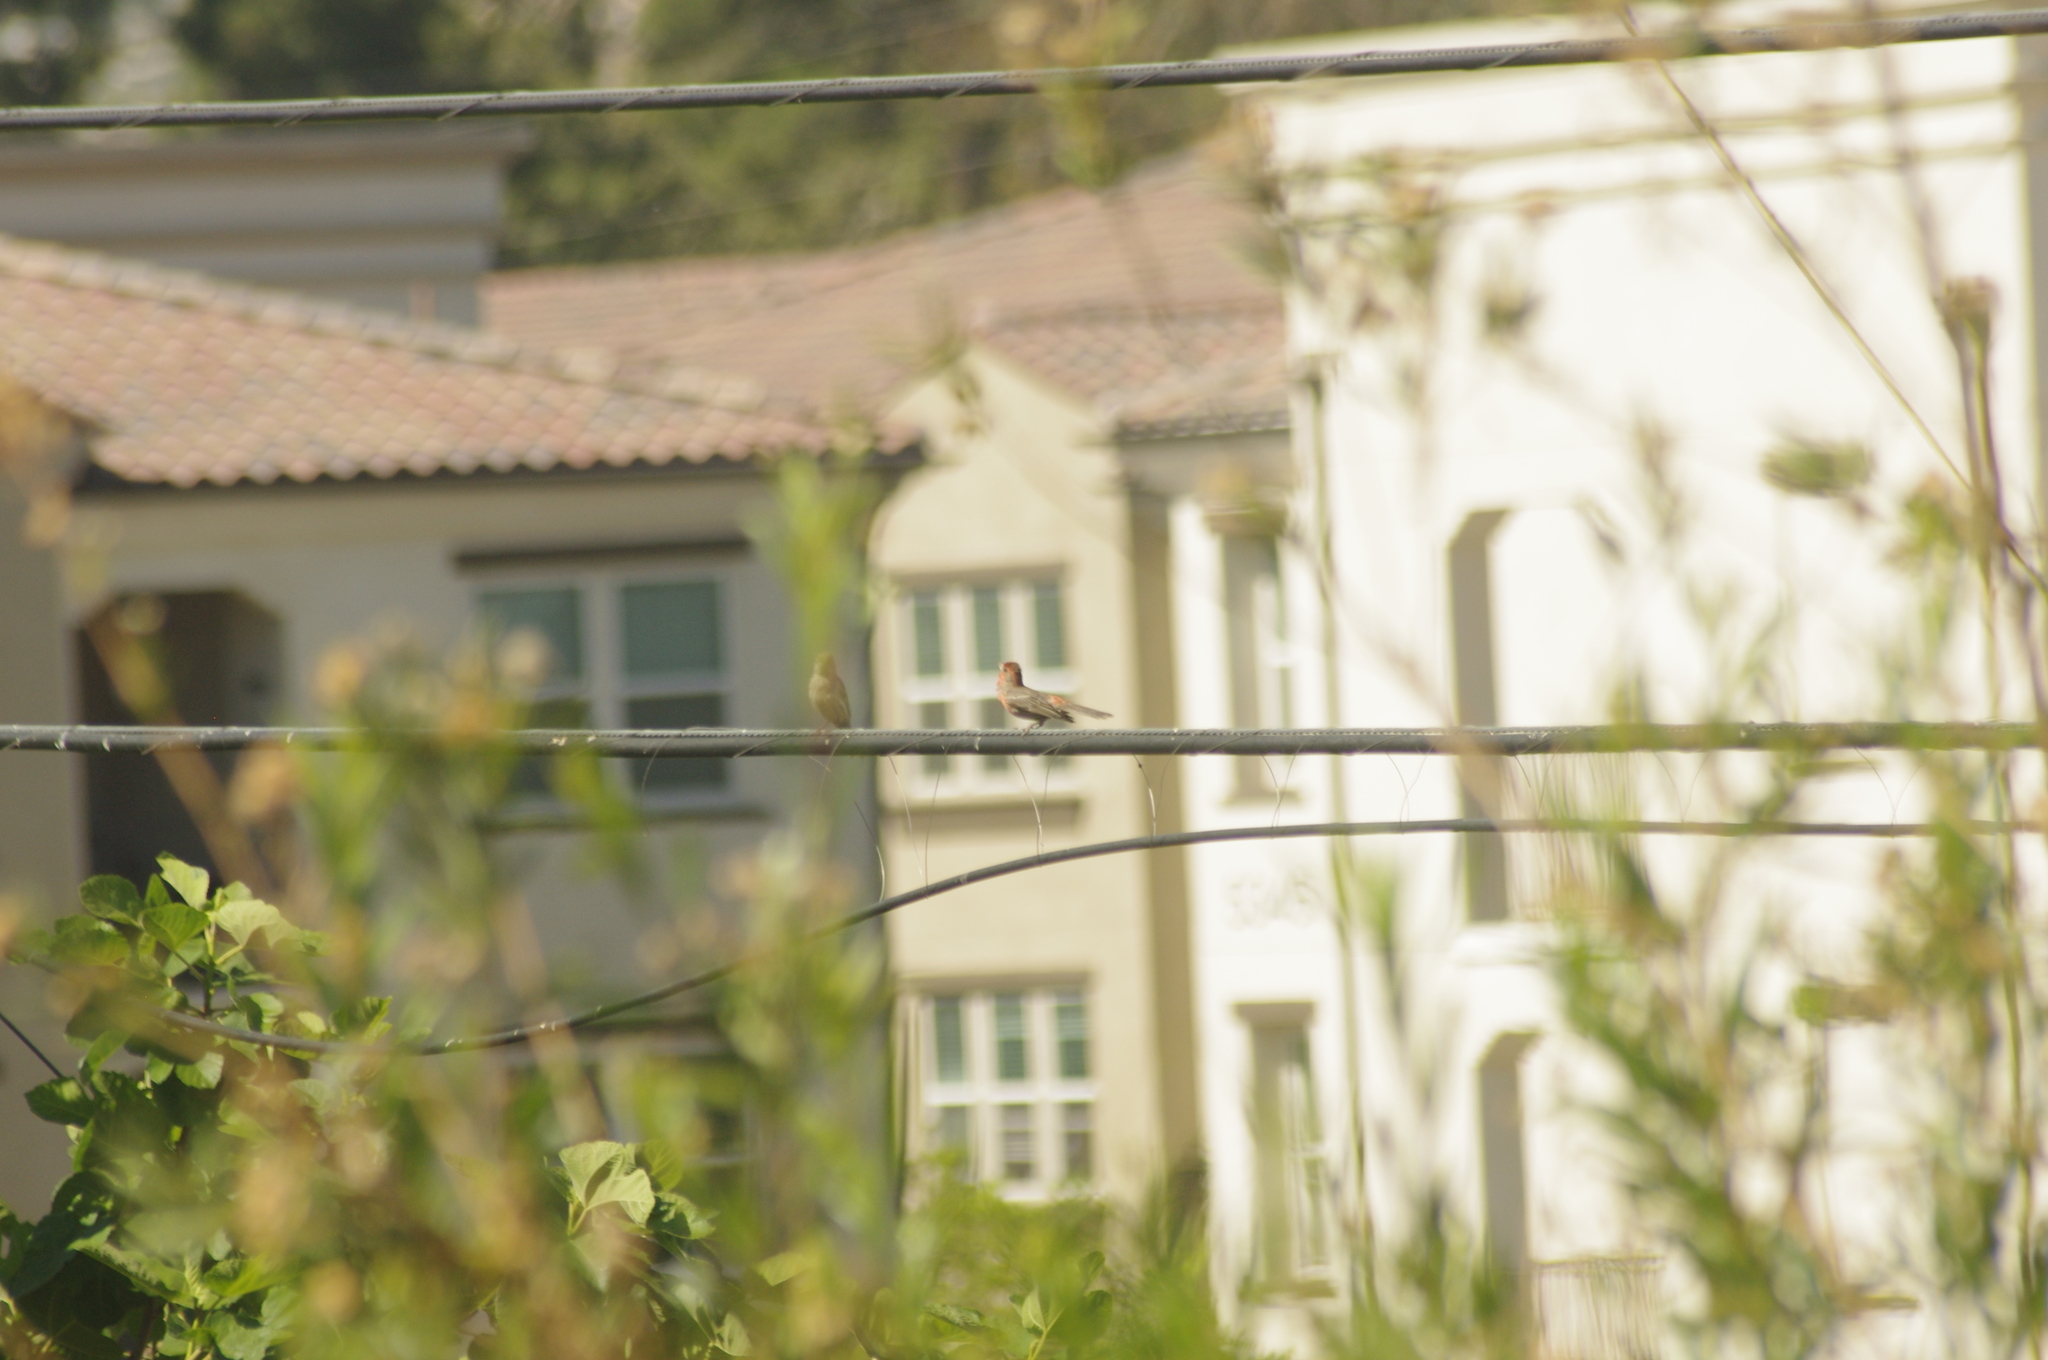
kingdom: Animalia
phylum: Chordata
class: Aves
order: Passeriformes
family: Fringillidae
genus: Haemorhous
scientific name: Haemorhous mexicanus
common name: House finch
